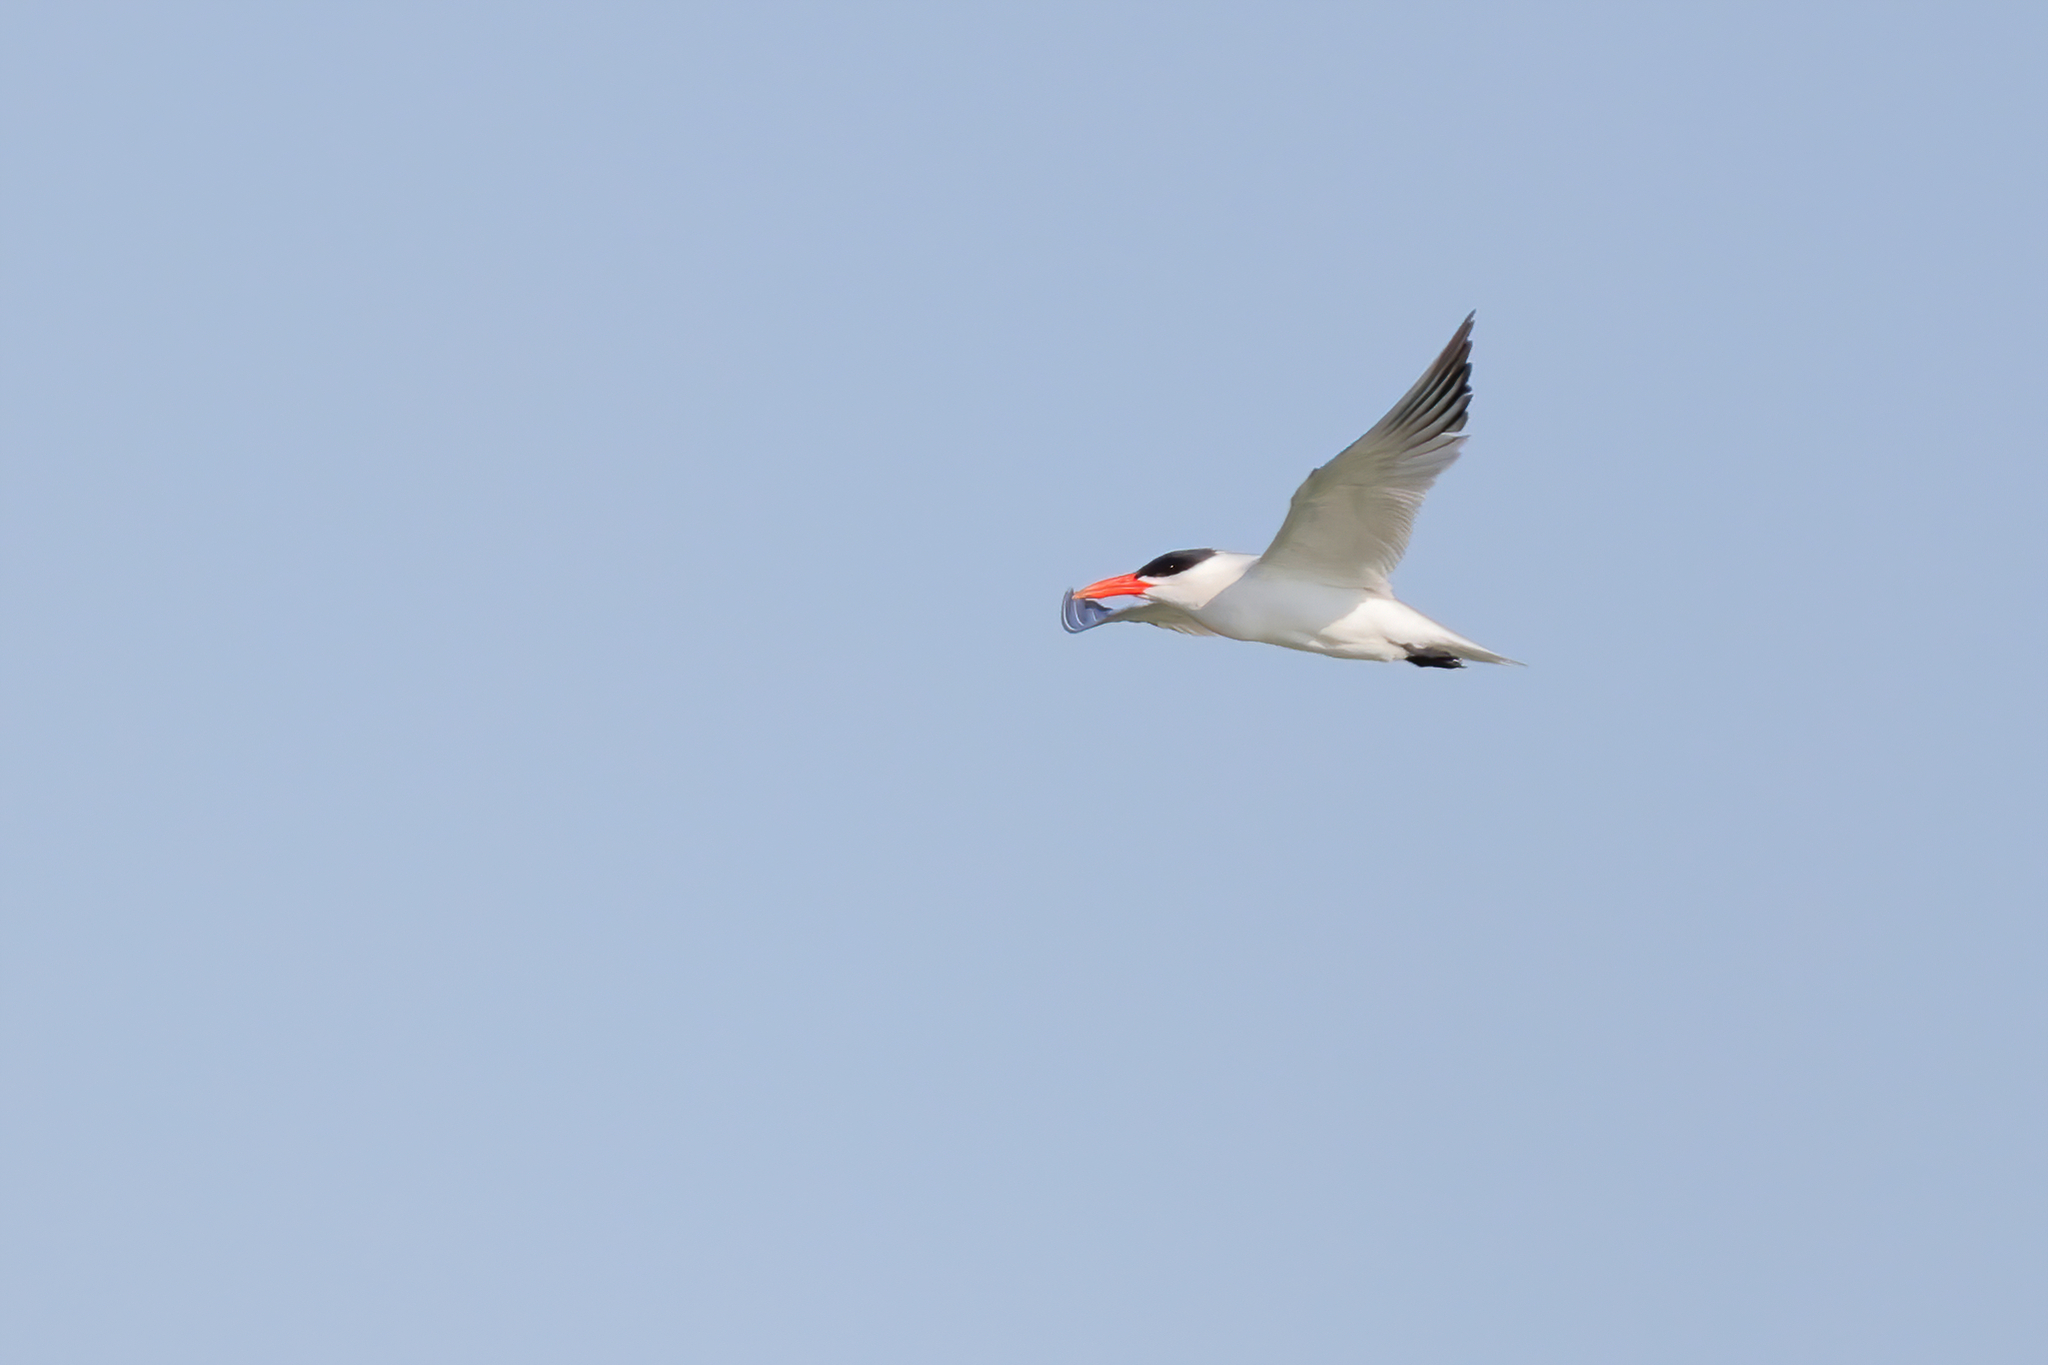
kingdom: Animalia
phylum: Chordata
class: Aves
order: Charadriiformes
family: Laridae
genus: Hydroprogne
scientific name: Hydroprogne caspia
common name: Caspian tern
